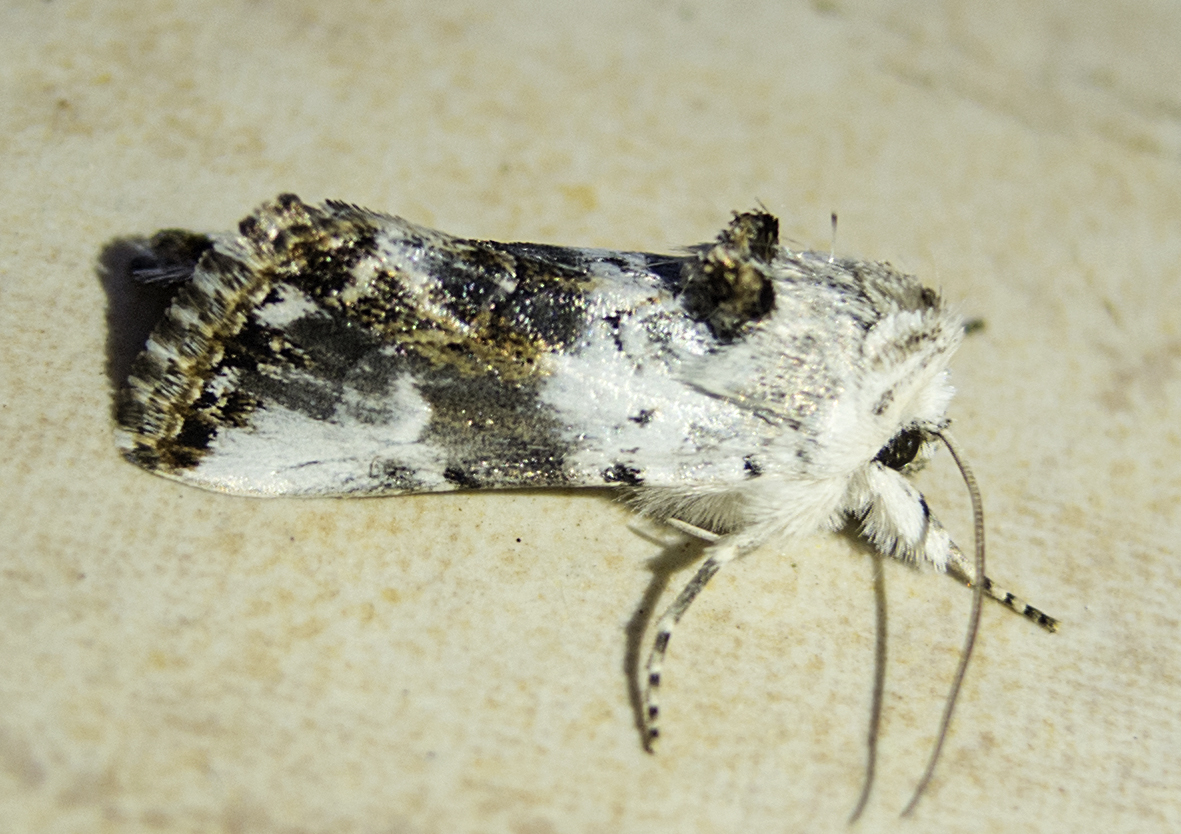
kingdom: Animalia
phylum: Arthropoda
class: Insecta
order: Lepidoptera
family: Noctuidae
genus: Calophasia
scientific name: Calophasia opalina
